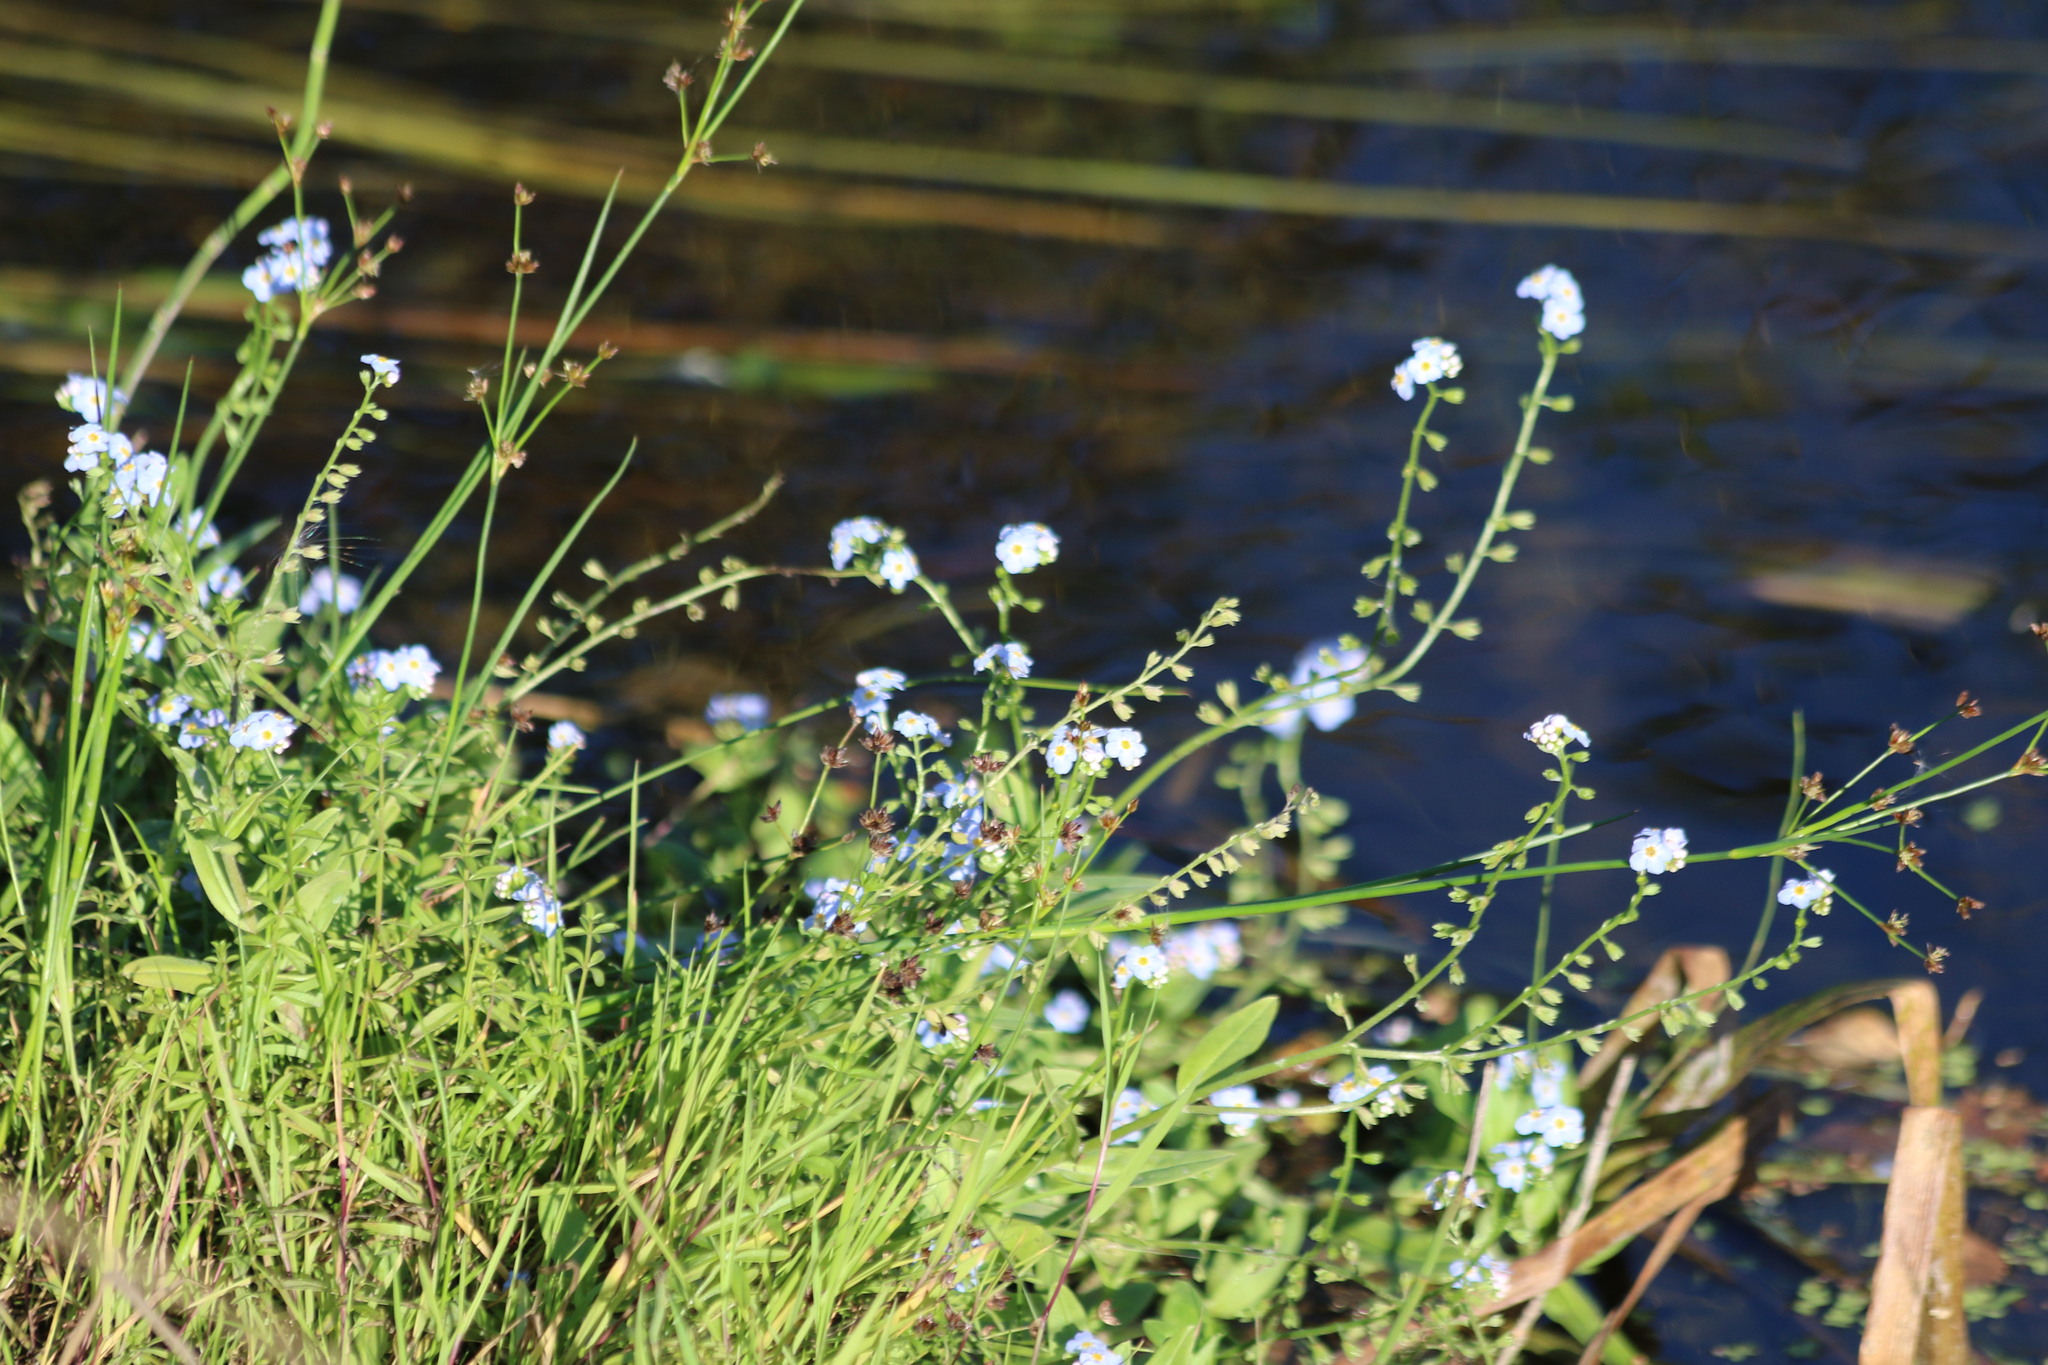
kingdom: Plantae
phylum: Tracheophyta
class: Magnoliopsida
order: Boraginales
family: Boraginaceae
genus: Myosotis
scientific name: Myosotis scorpioides
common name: Water forget-me-not
